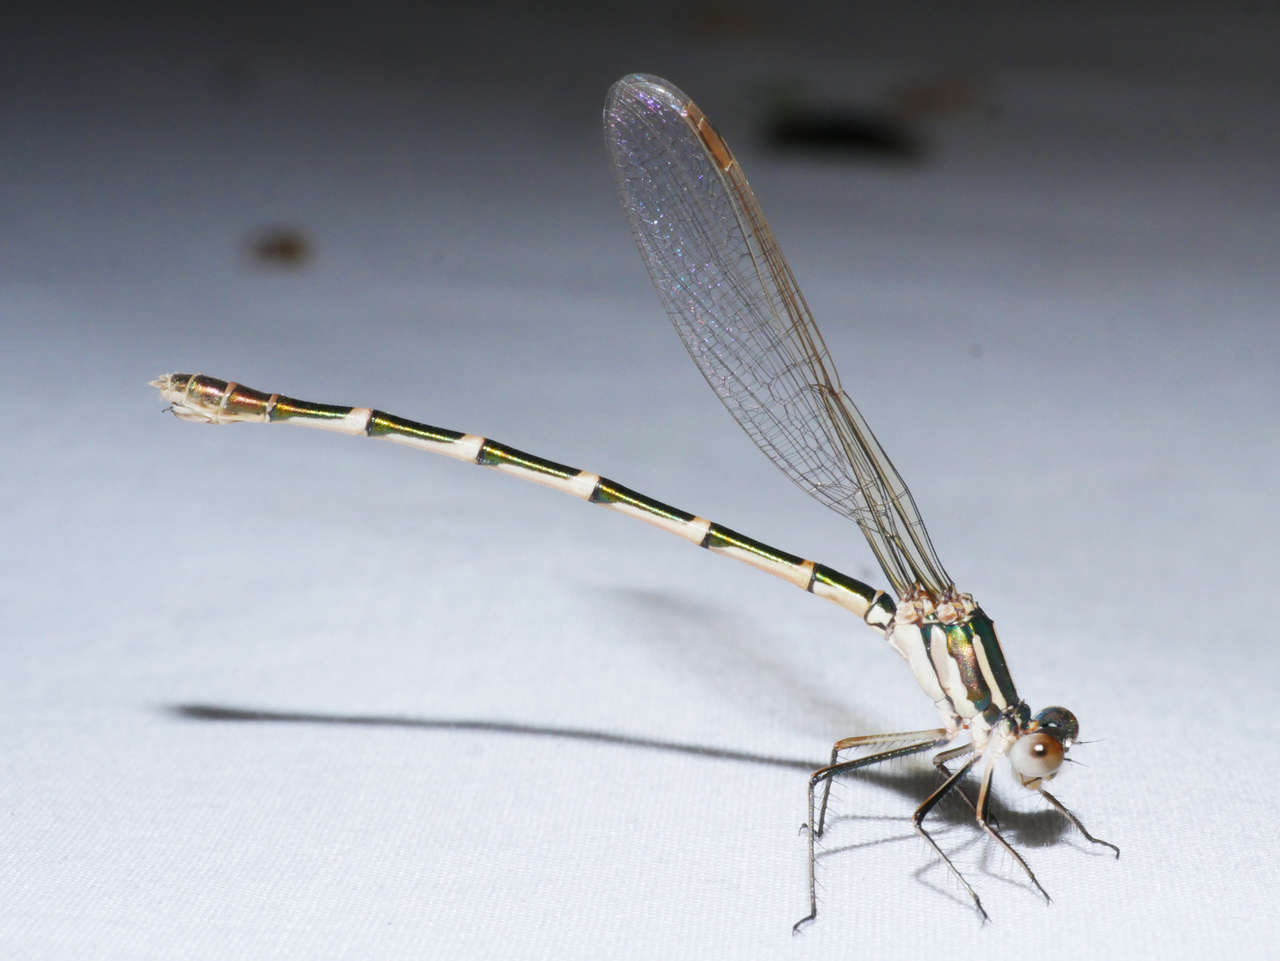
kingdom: Animalia
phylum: Arthropoda
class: Insecta
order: Odonata
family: Lestidae
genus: Austrolestes
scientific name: Austrolestes annulosus
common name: Blue ringtail
